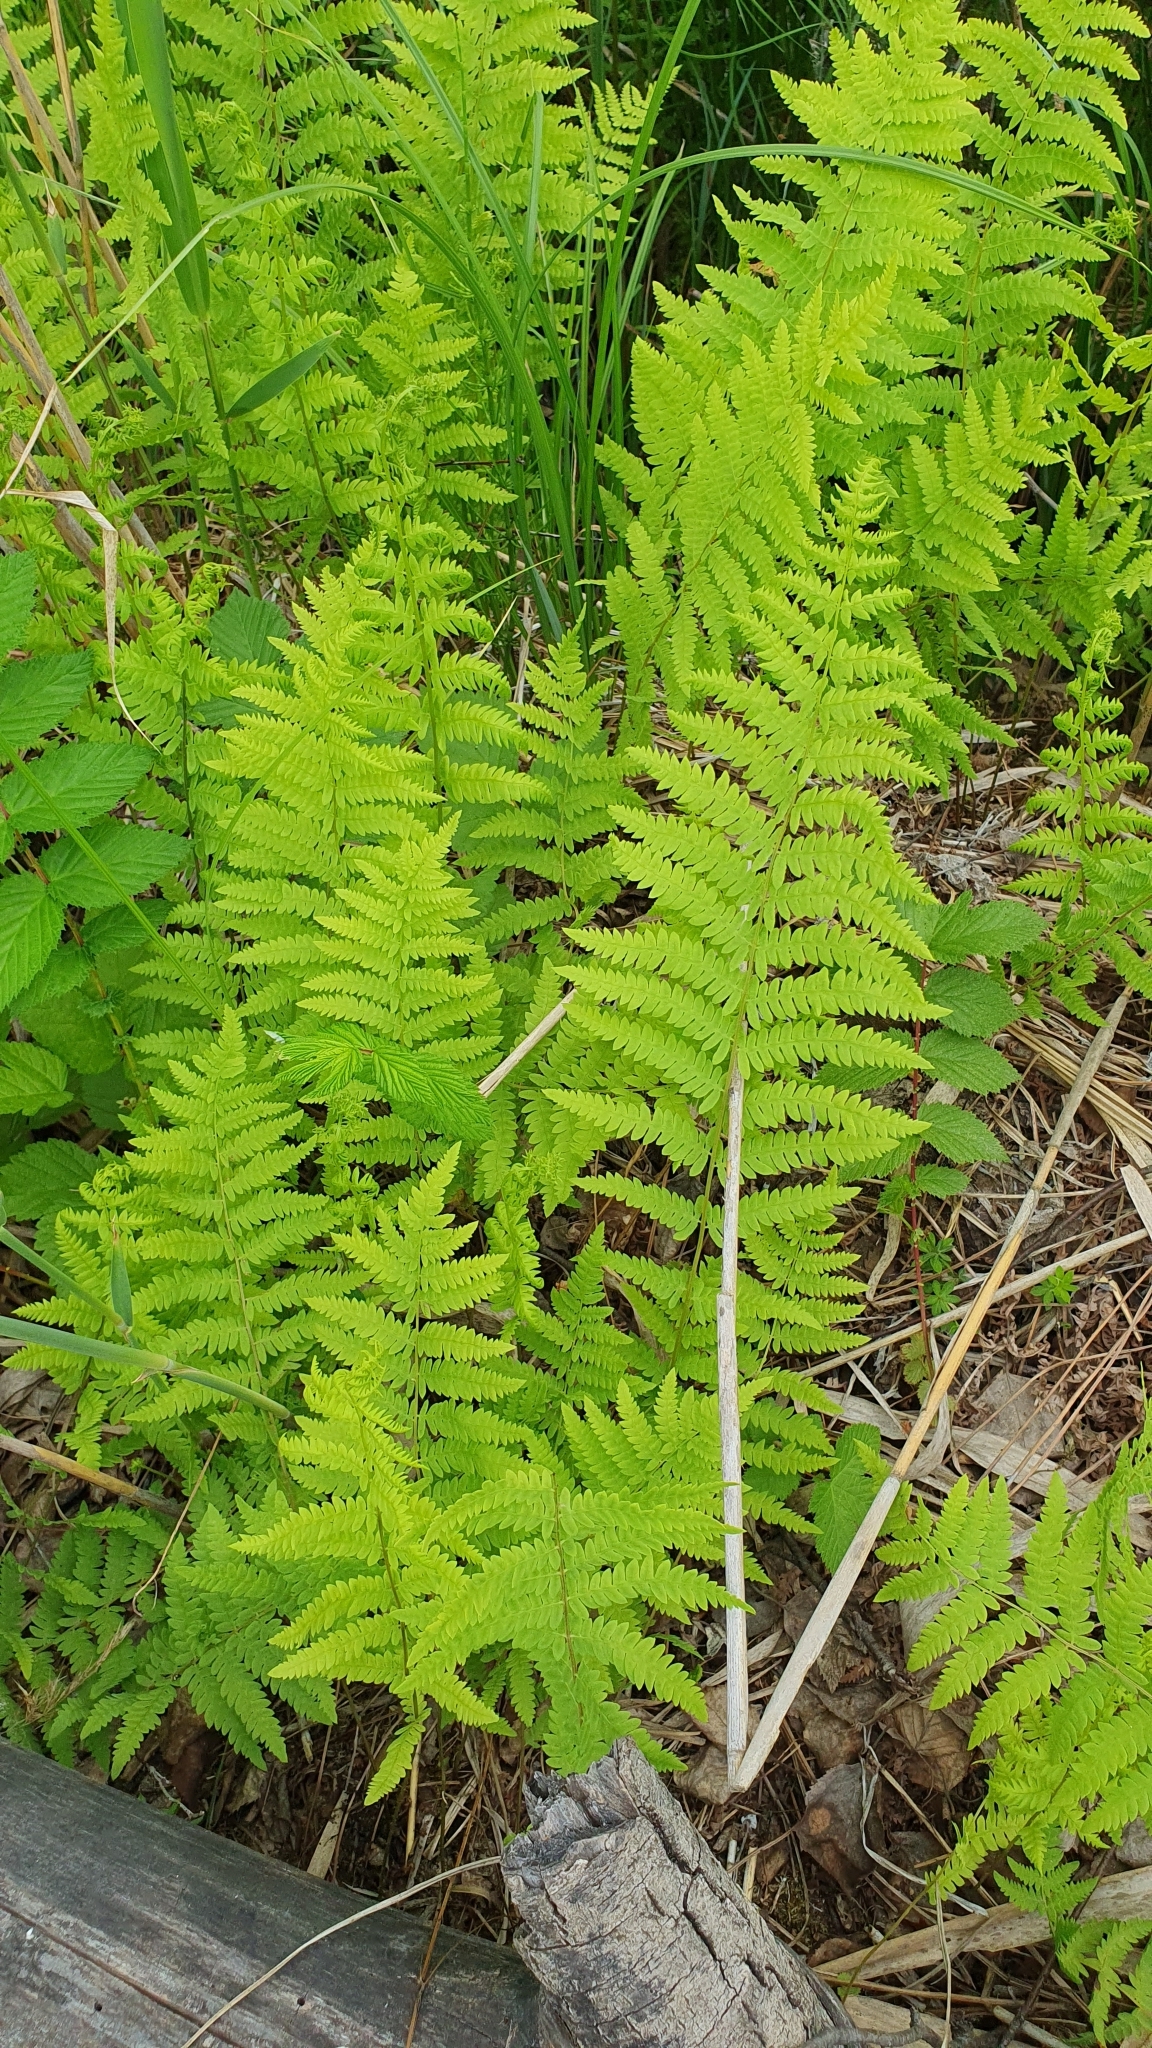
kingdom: Plantae
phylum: Tracheophyta
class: Polypodiopsida
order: Polypodiales
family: Thelypteridaceae
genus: Thelypteris
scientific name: Thelypteris palustris
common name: Marsh fern
